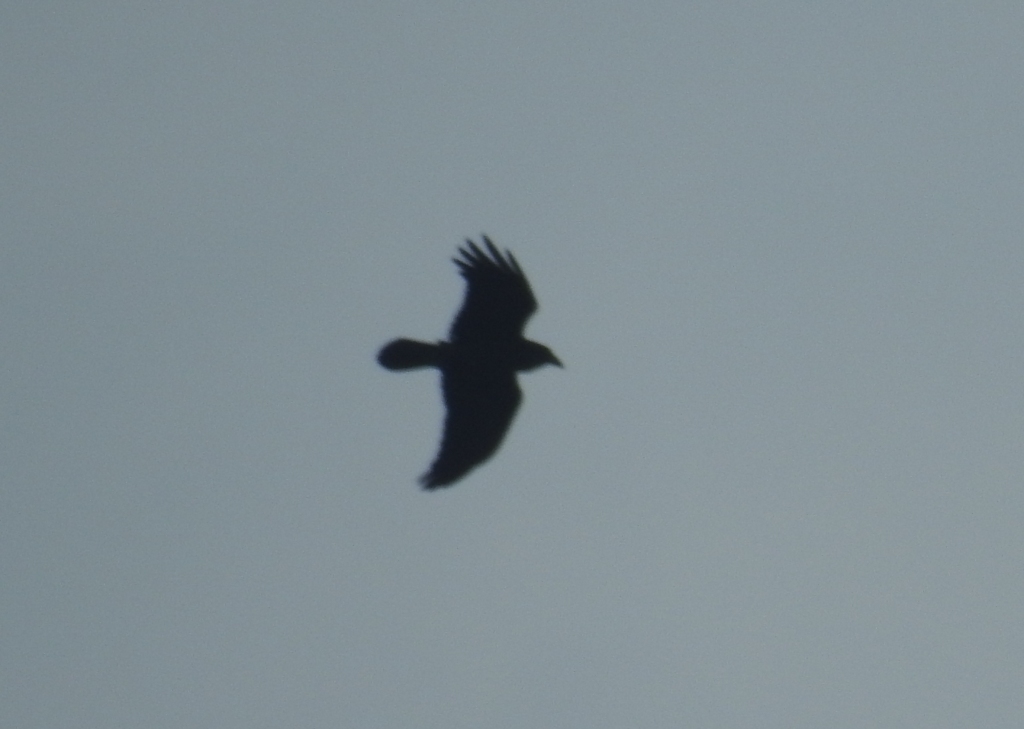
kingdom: Animalia
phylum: Chordata
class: Aves
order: Passeriformes
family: Corvidae
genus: Corvus
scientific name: Corvus corax
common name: Common raven
